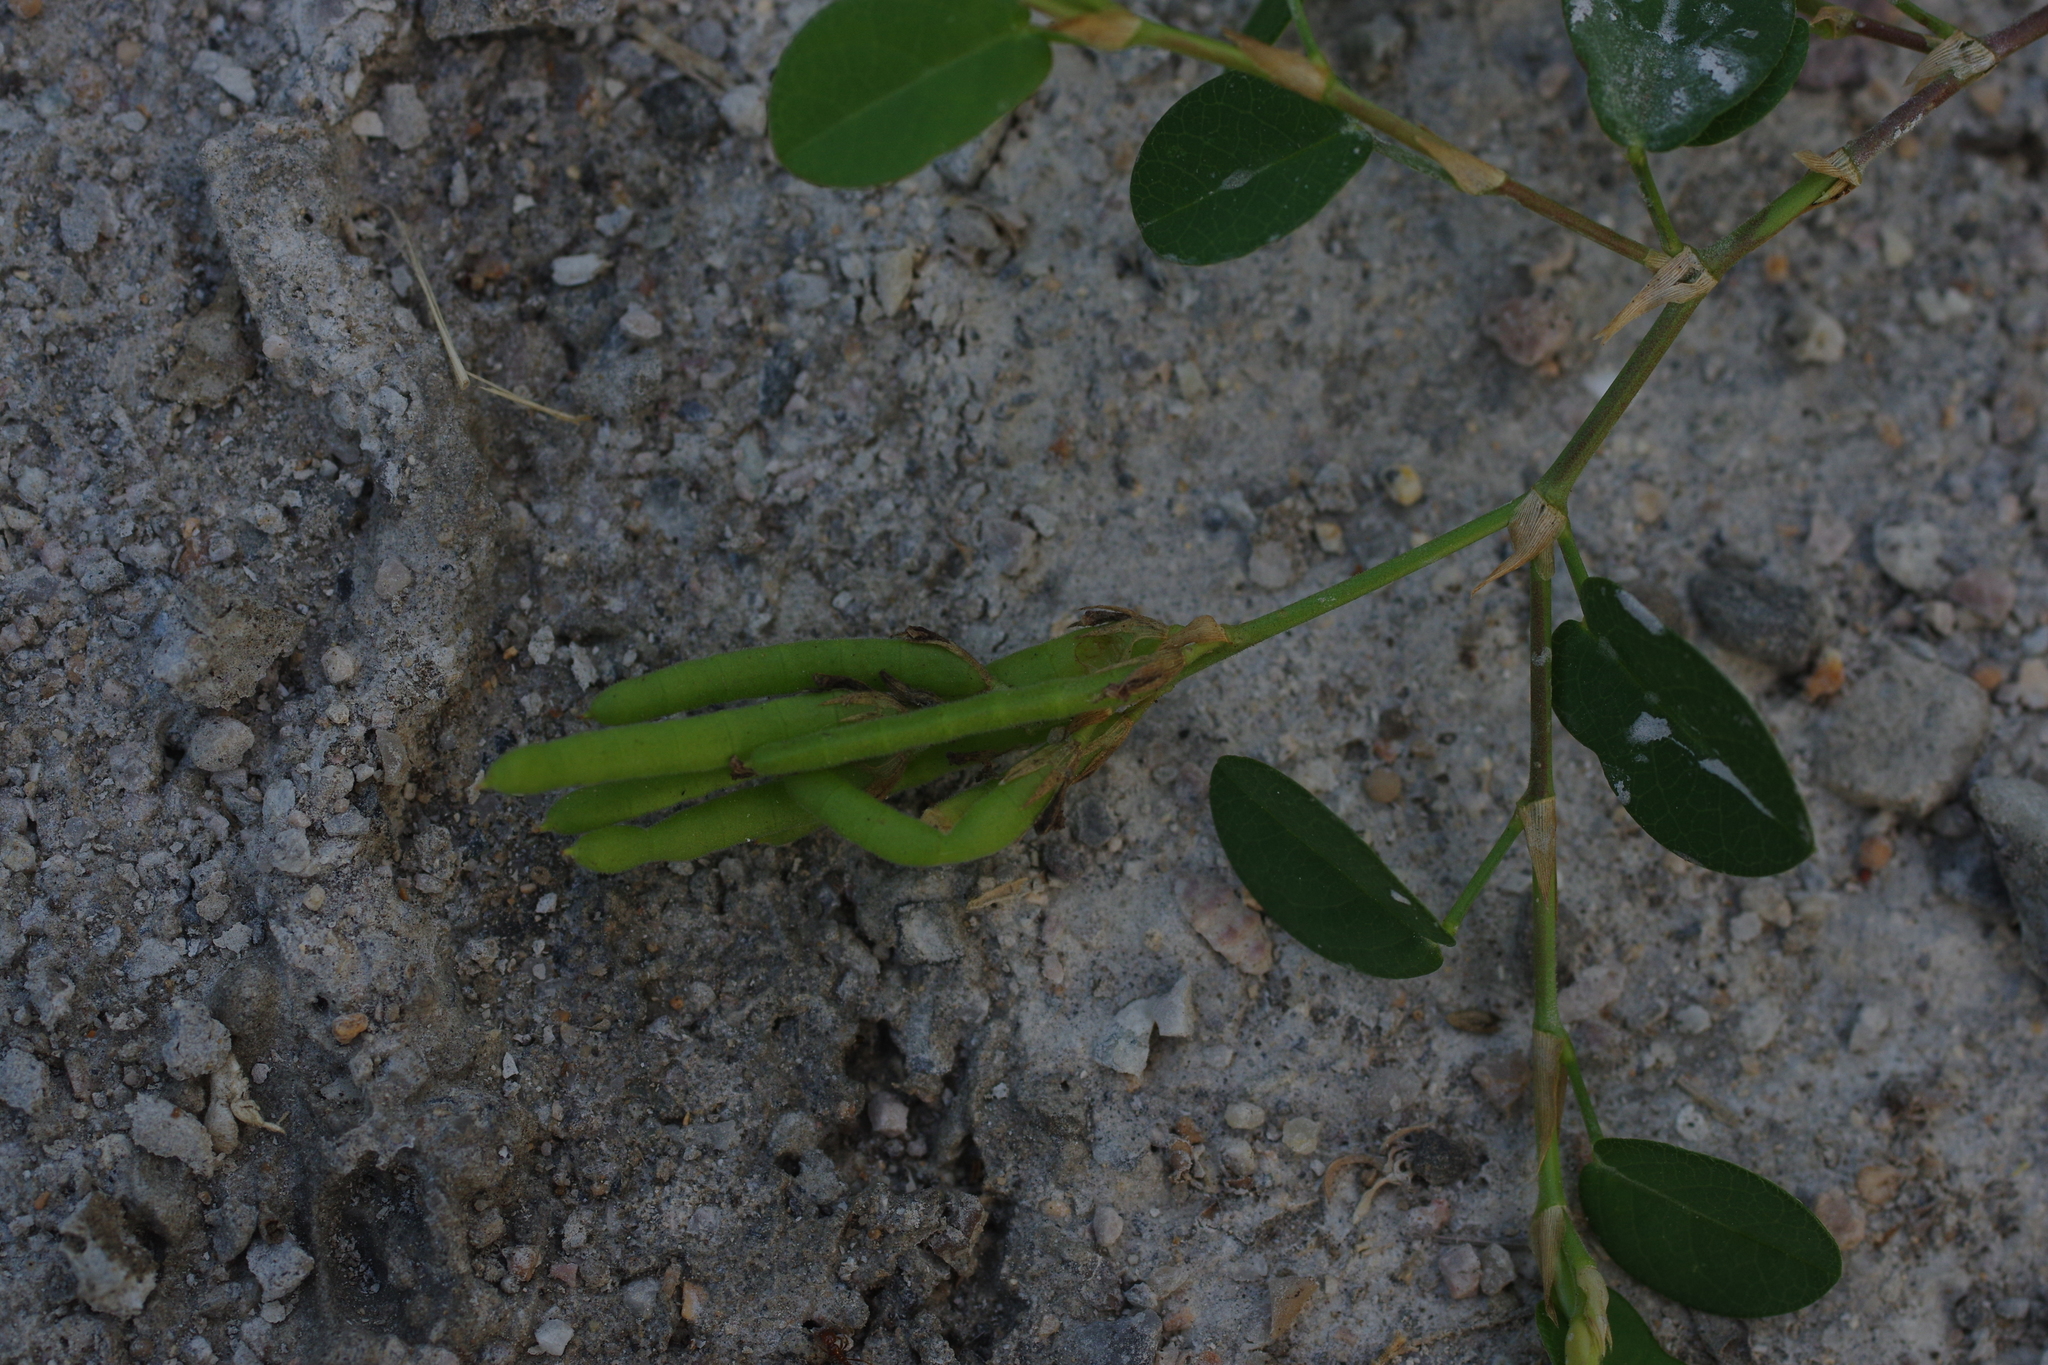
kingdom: Plantae
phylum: Tracheophyta
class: Magnoliopsida
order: Fabales
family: Fabaceae
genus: Alysicarpus
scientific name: Alysicarpus vaginalis
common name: White moneywort
